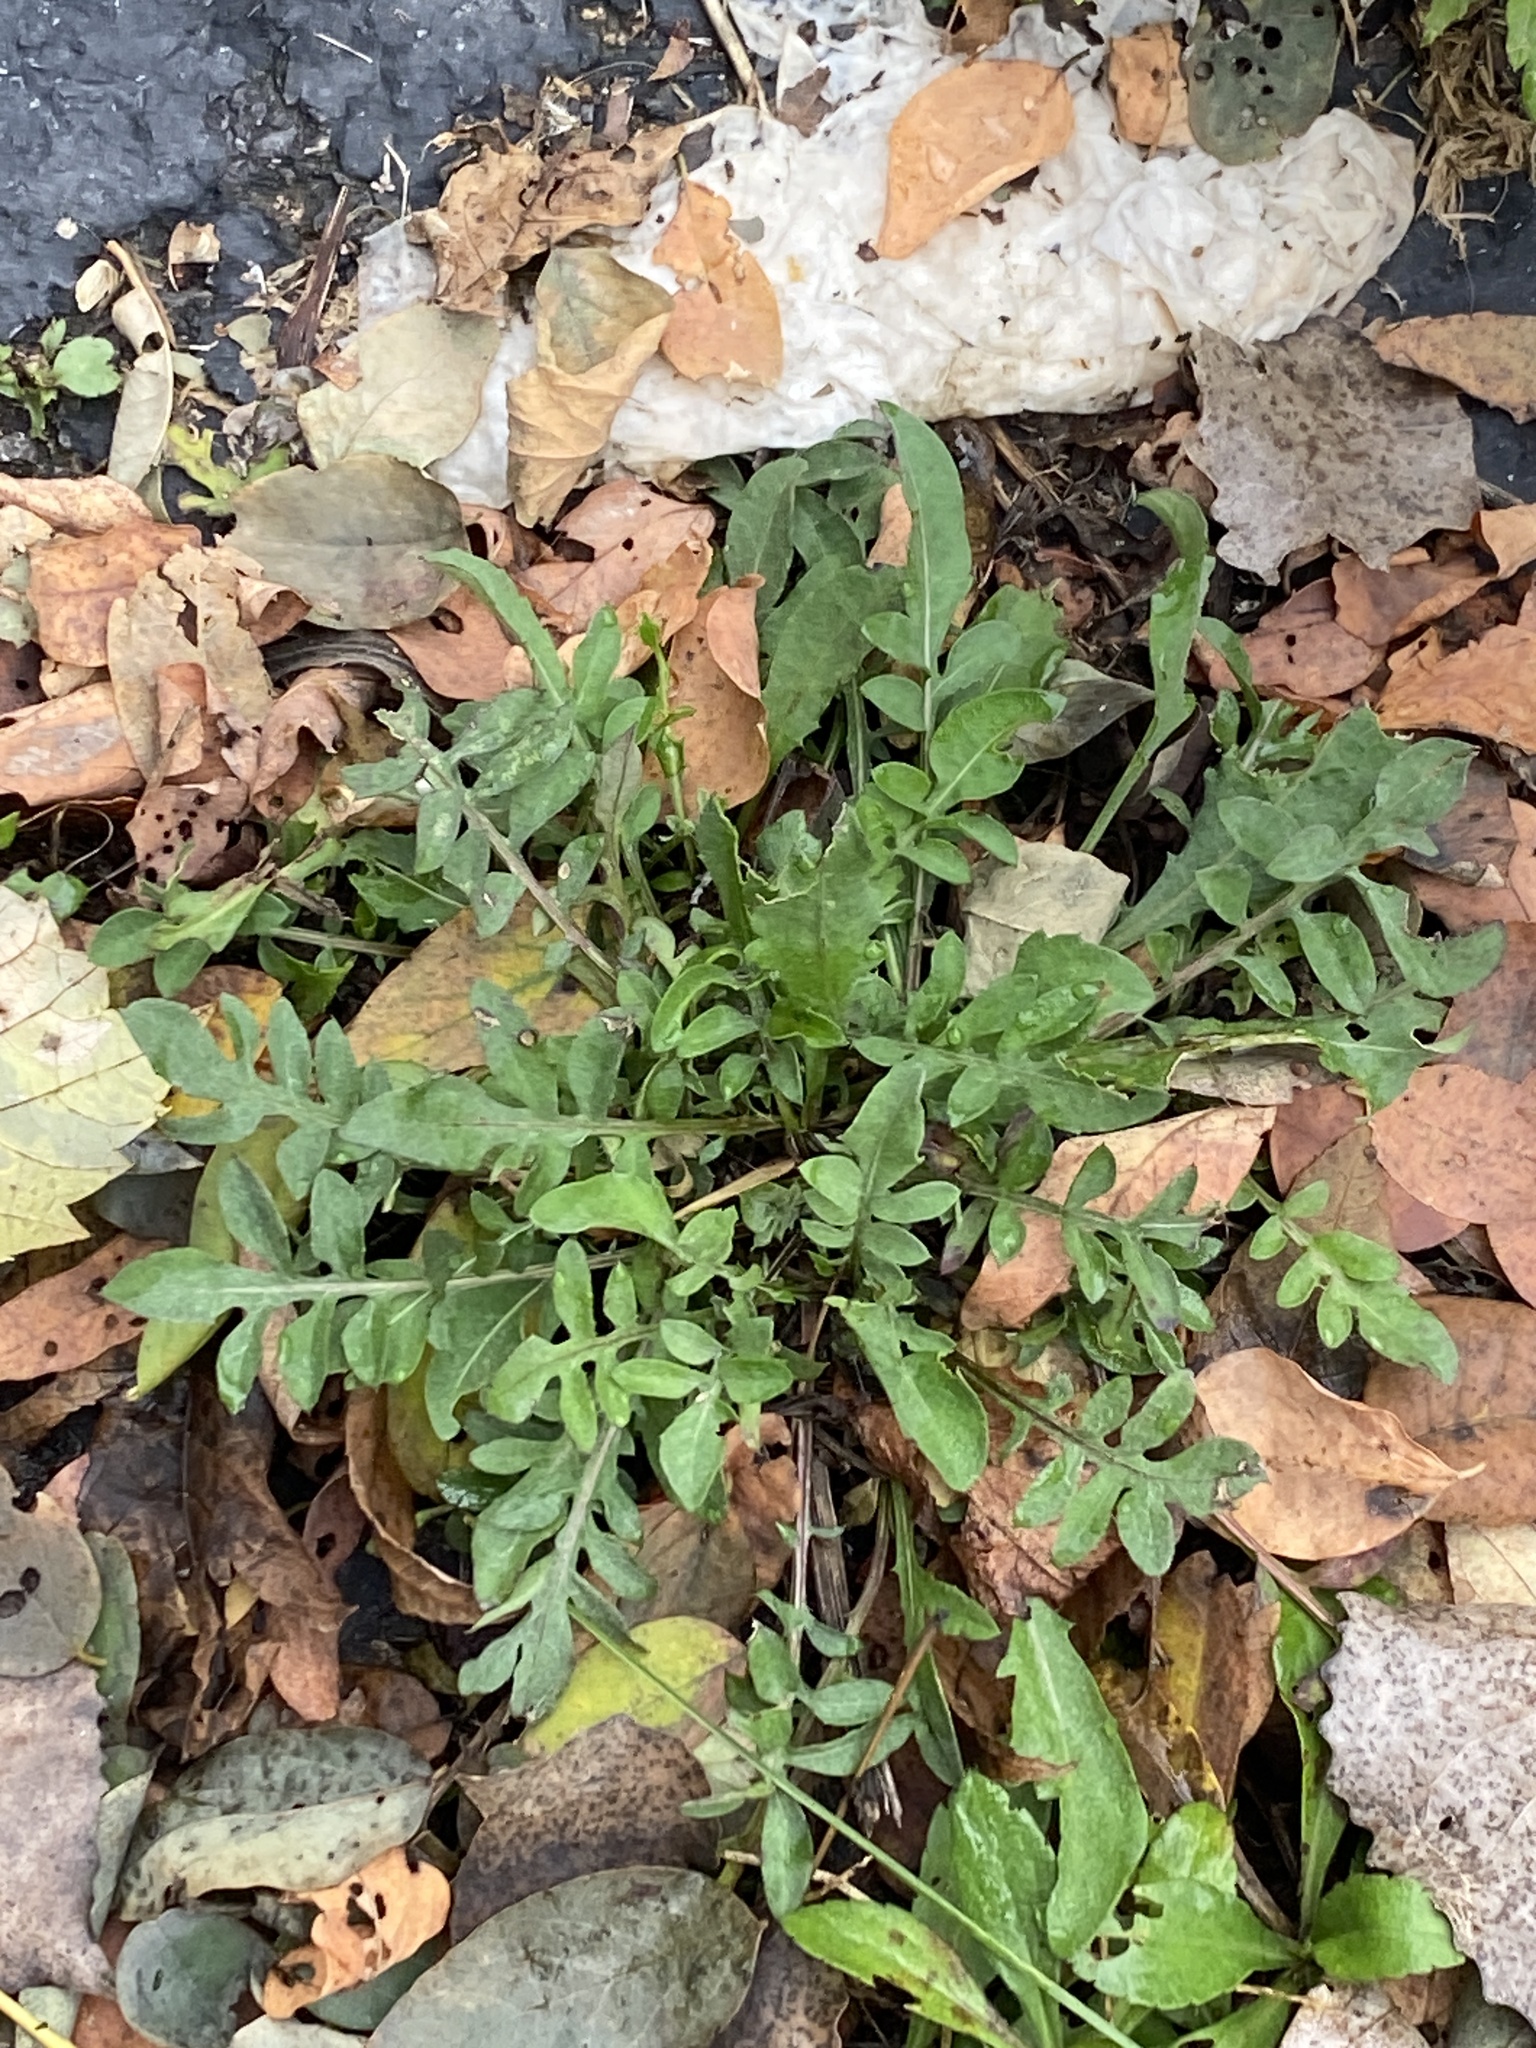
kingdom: Plantae
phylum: Tracheophyta
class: Magnoliopsida
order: Asterales
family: Asteraceae
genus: Centaurea
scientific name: Centaurea stoebe
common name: Spotted knapweed
